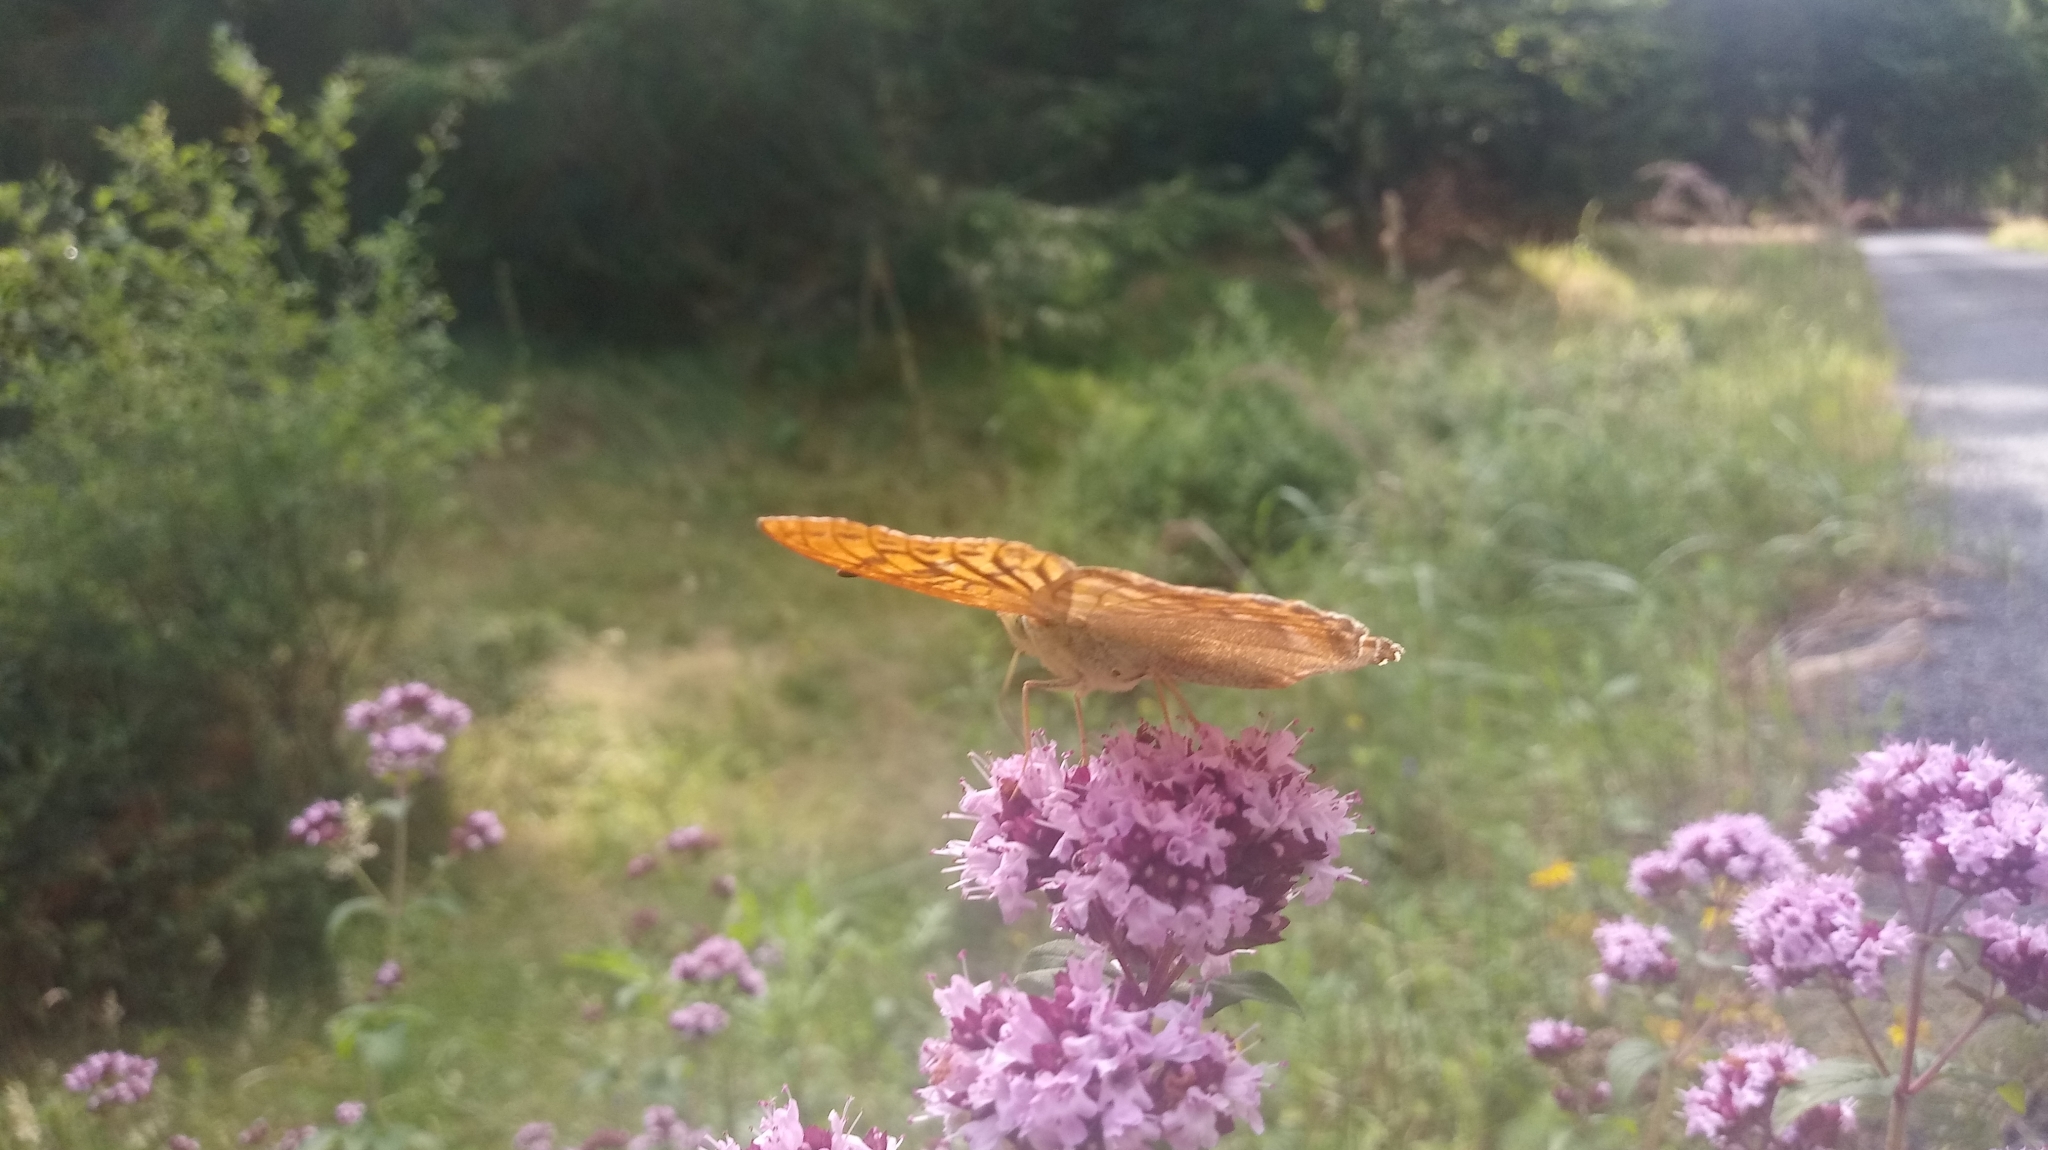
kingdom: Animalia
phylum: Arthropoda
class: Insecta
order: Lepidoptera
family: Nymphalidae
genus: Argynnis
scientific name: Argynnis paphia
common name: Silver-washed fritillary
